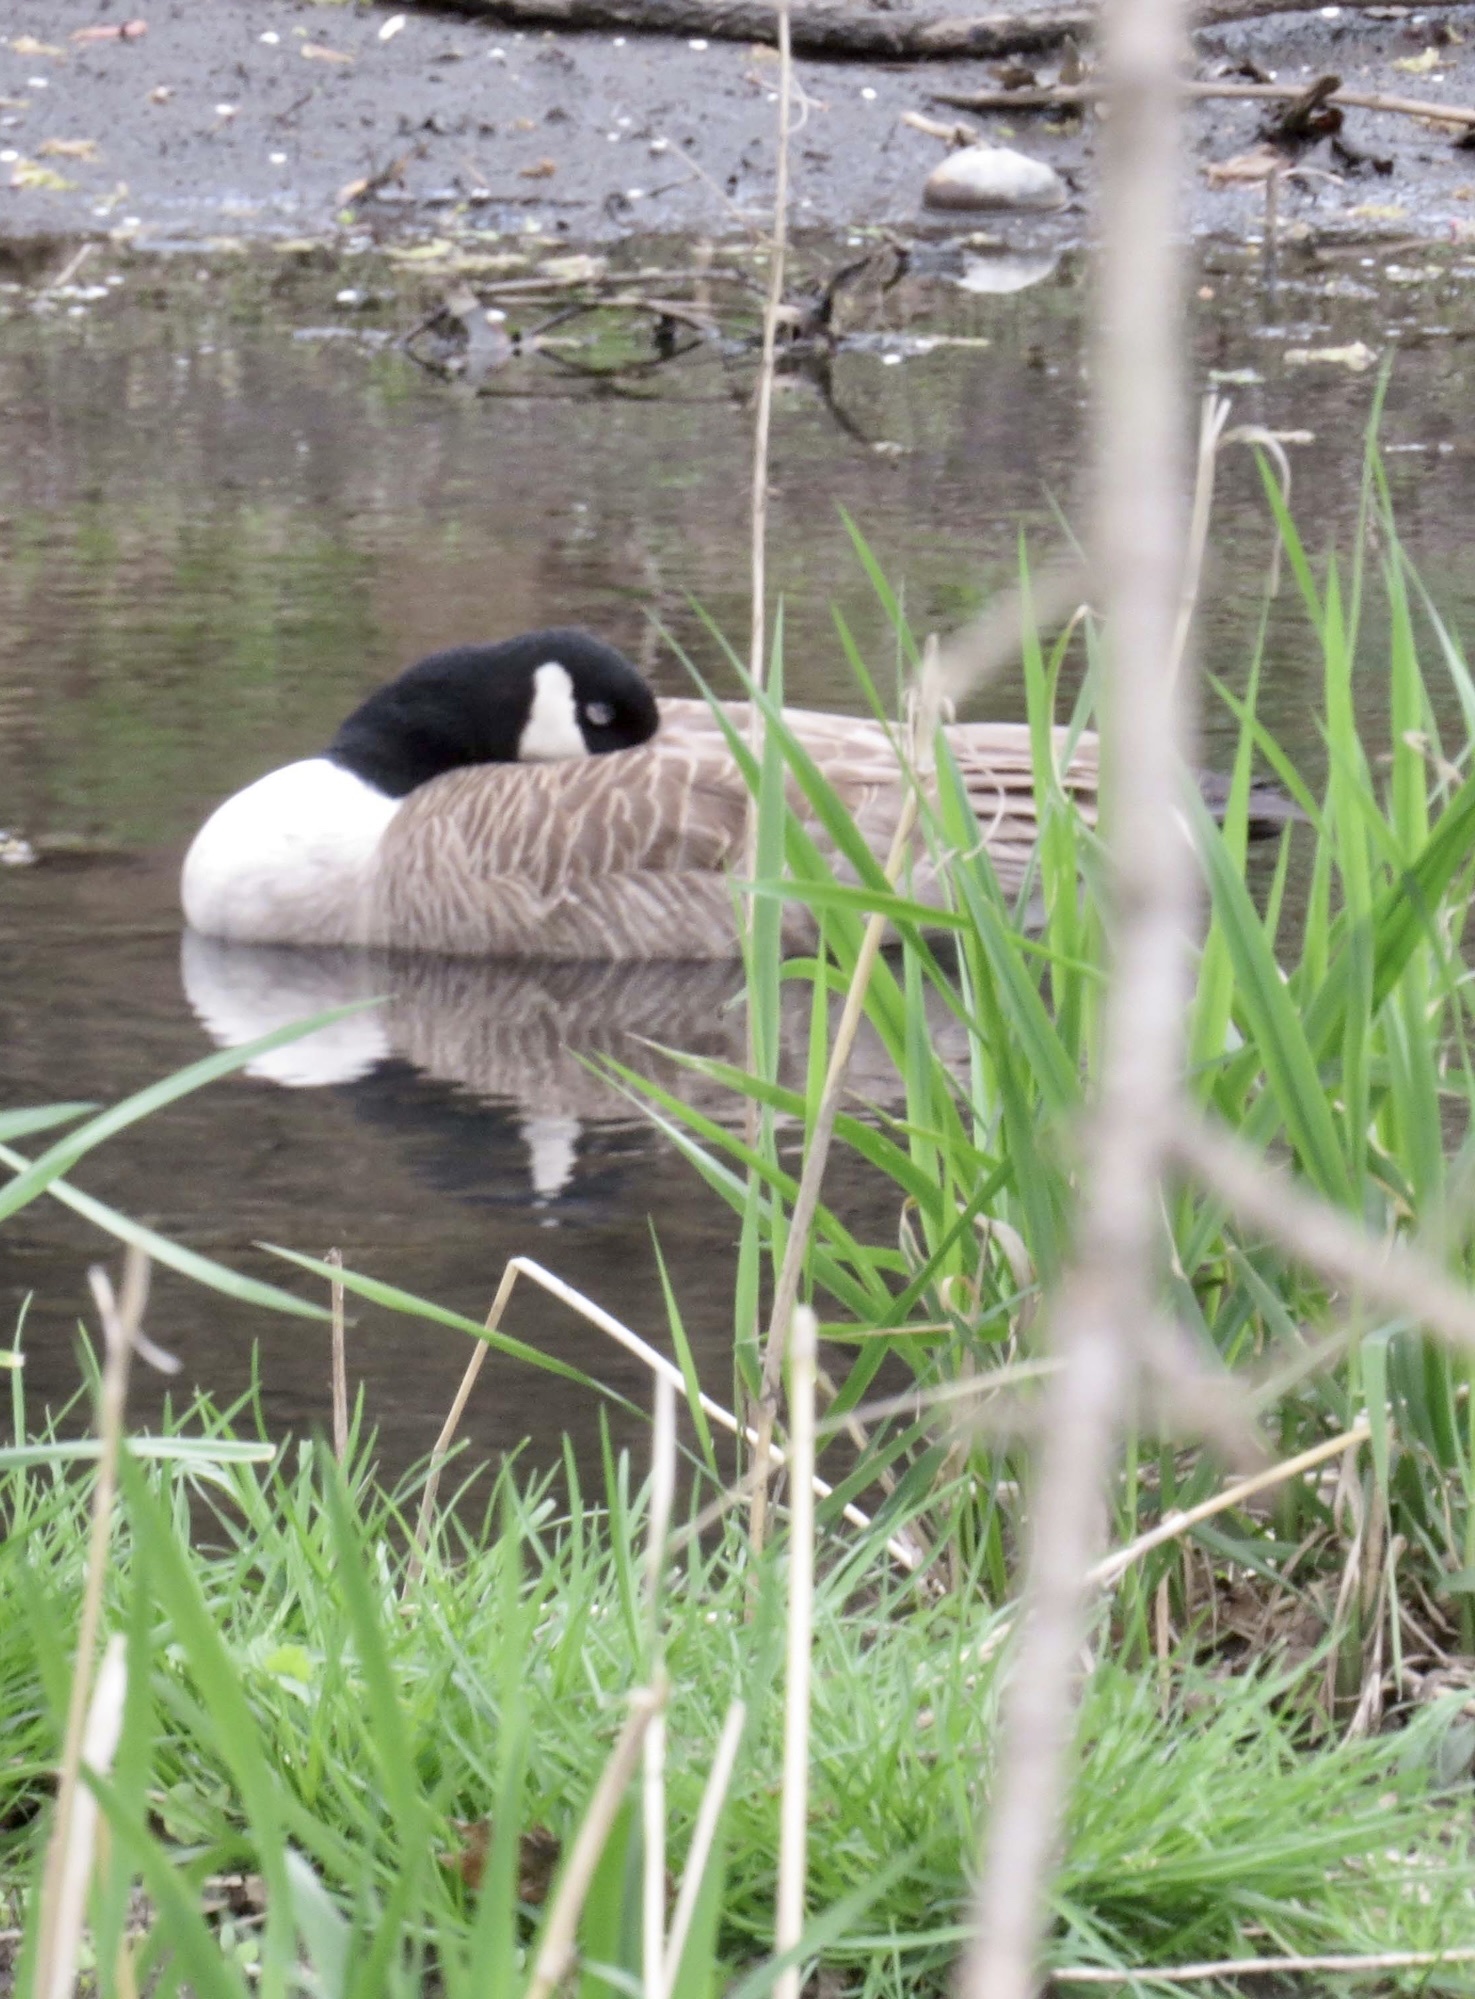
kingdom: Animalia
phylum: Chordata
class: Aves
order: Anseriformes
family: Anatidae
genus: Branta
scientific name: Branta canadensis
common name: Canada goose
